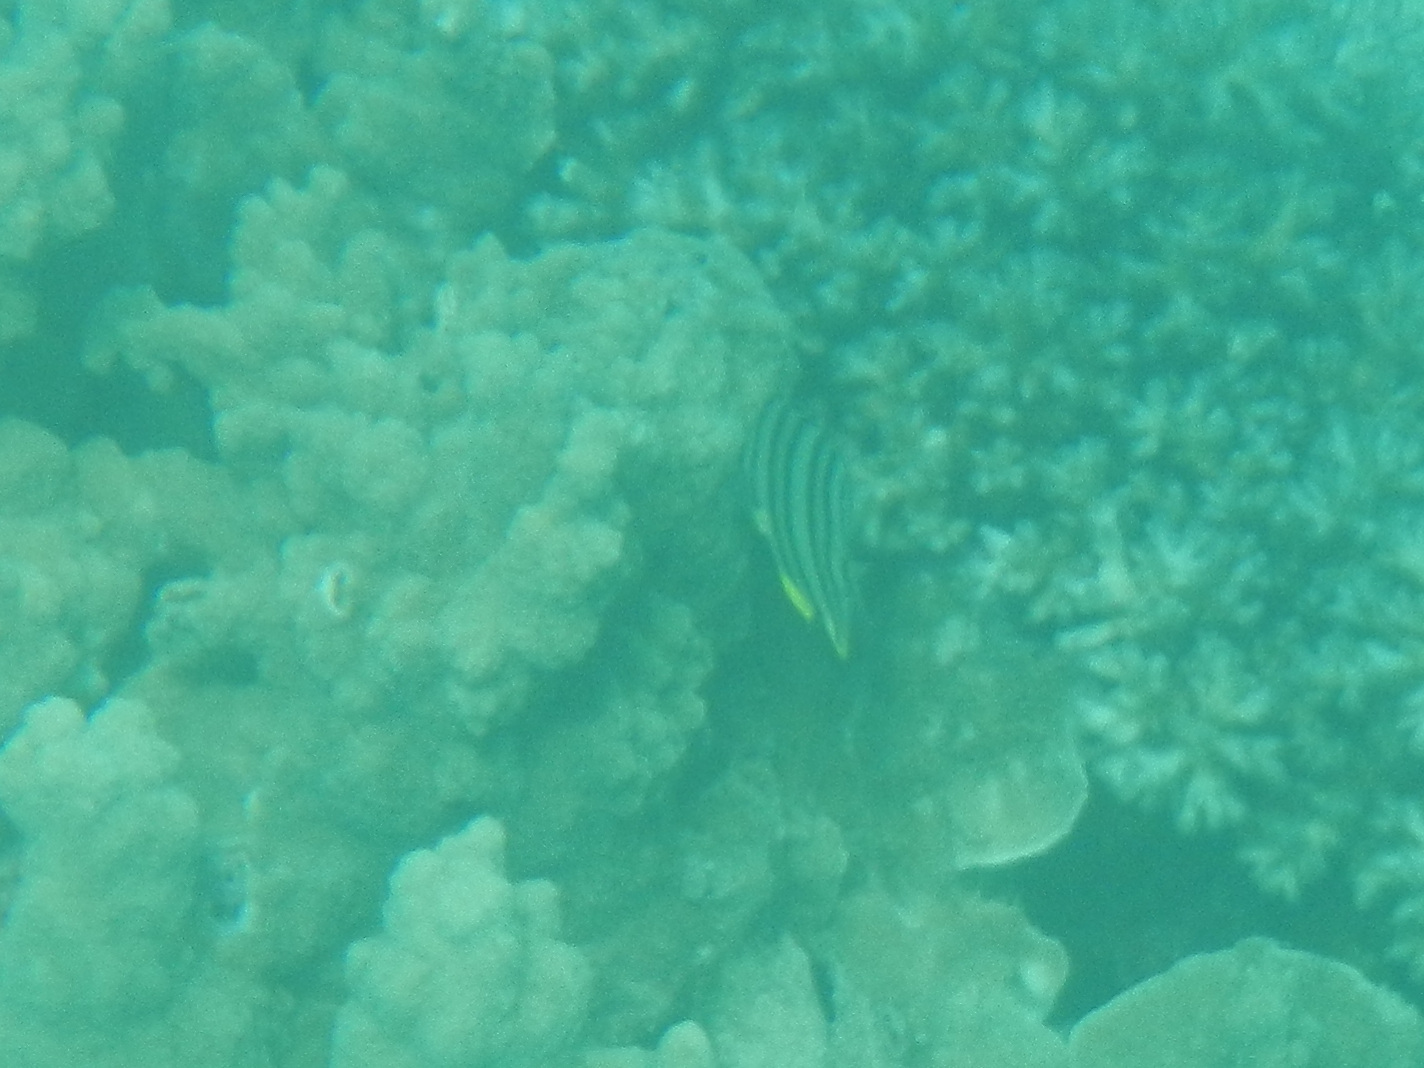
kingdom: Animalia
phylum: Chordata
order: Perciformes
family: Chaetodontidae
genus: Chaetodon
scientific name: Chaetodon octofasciatus
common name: Eightband butterflyfish
